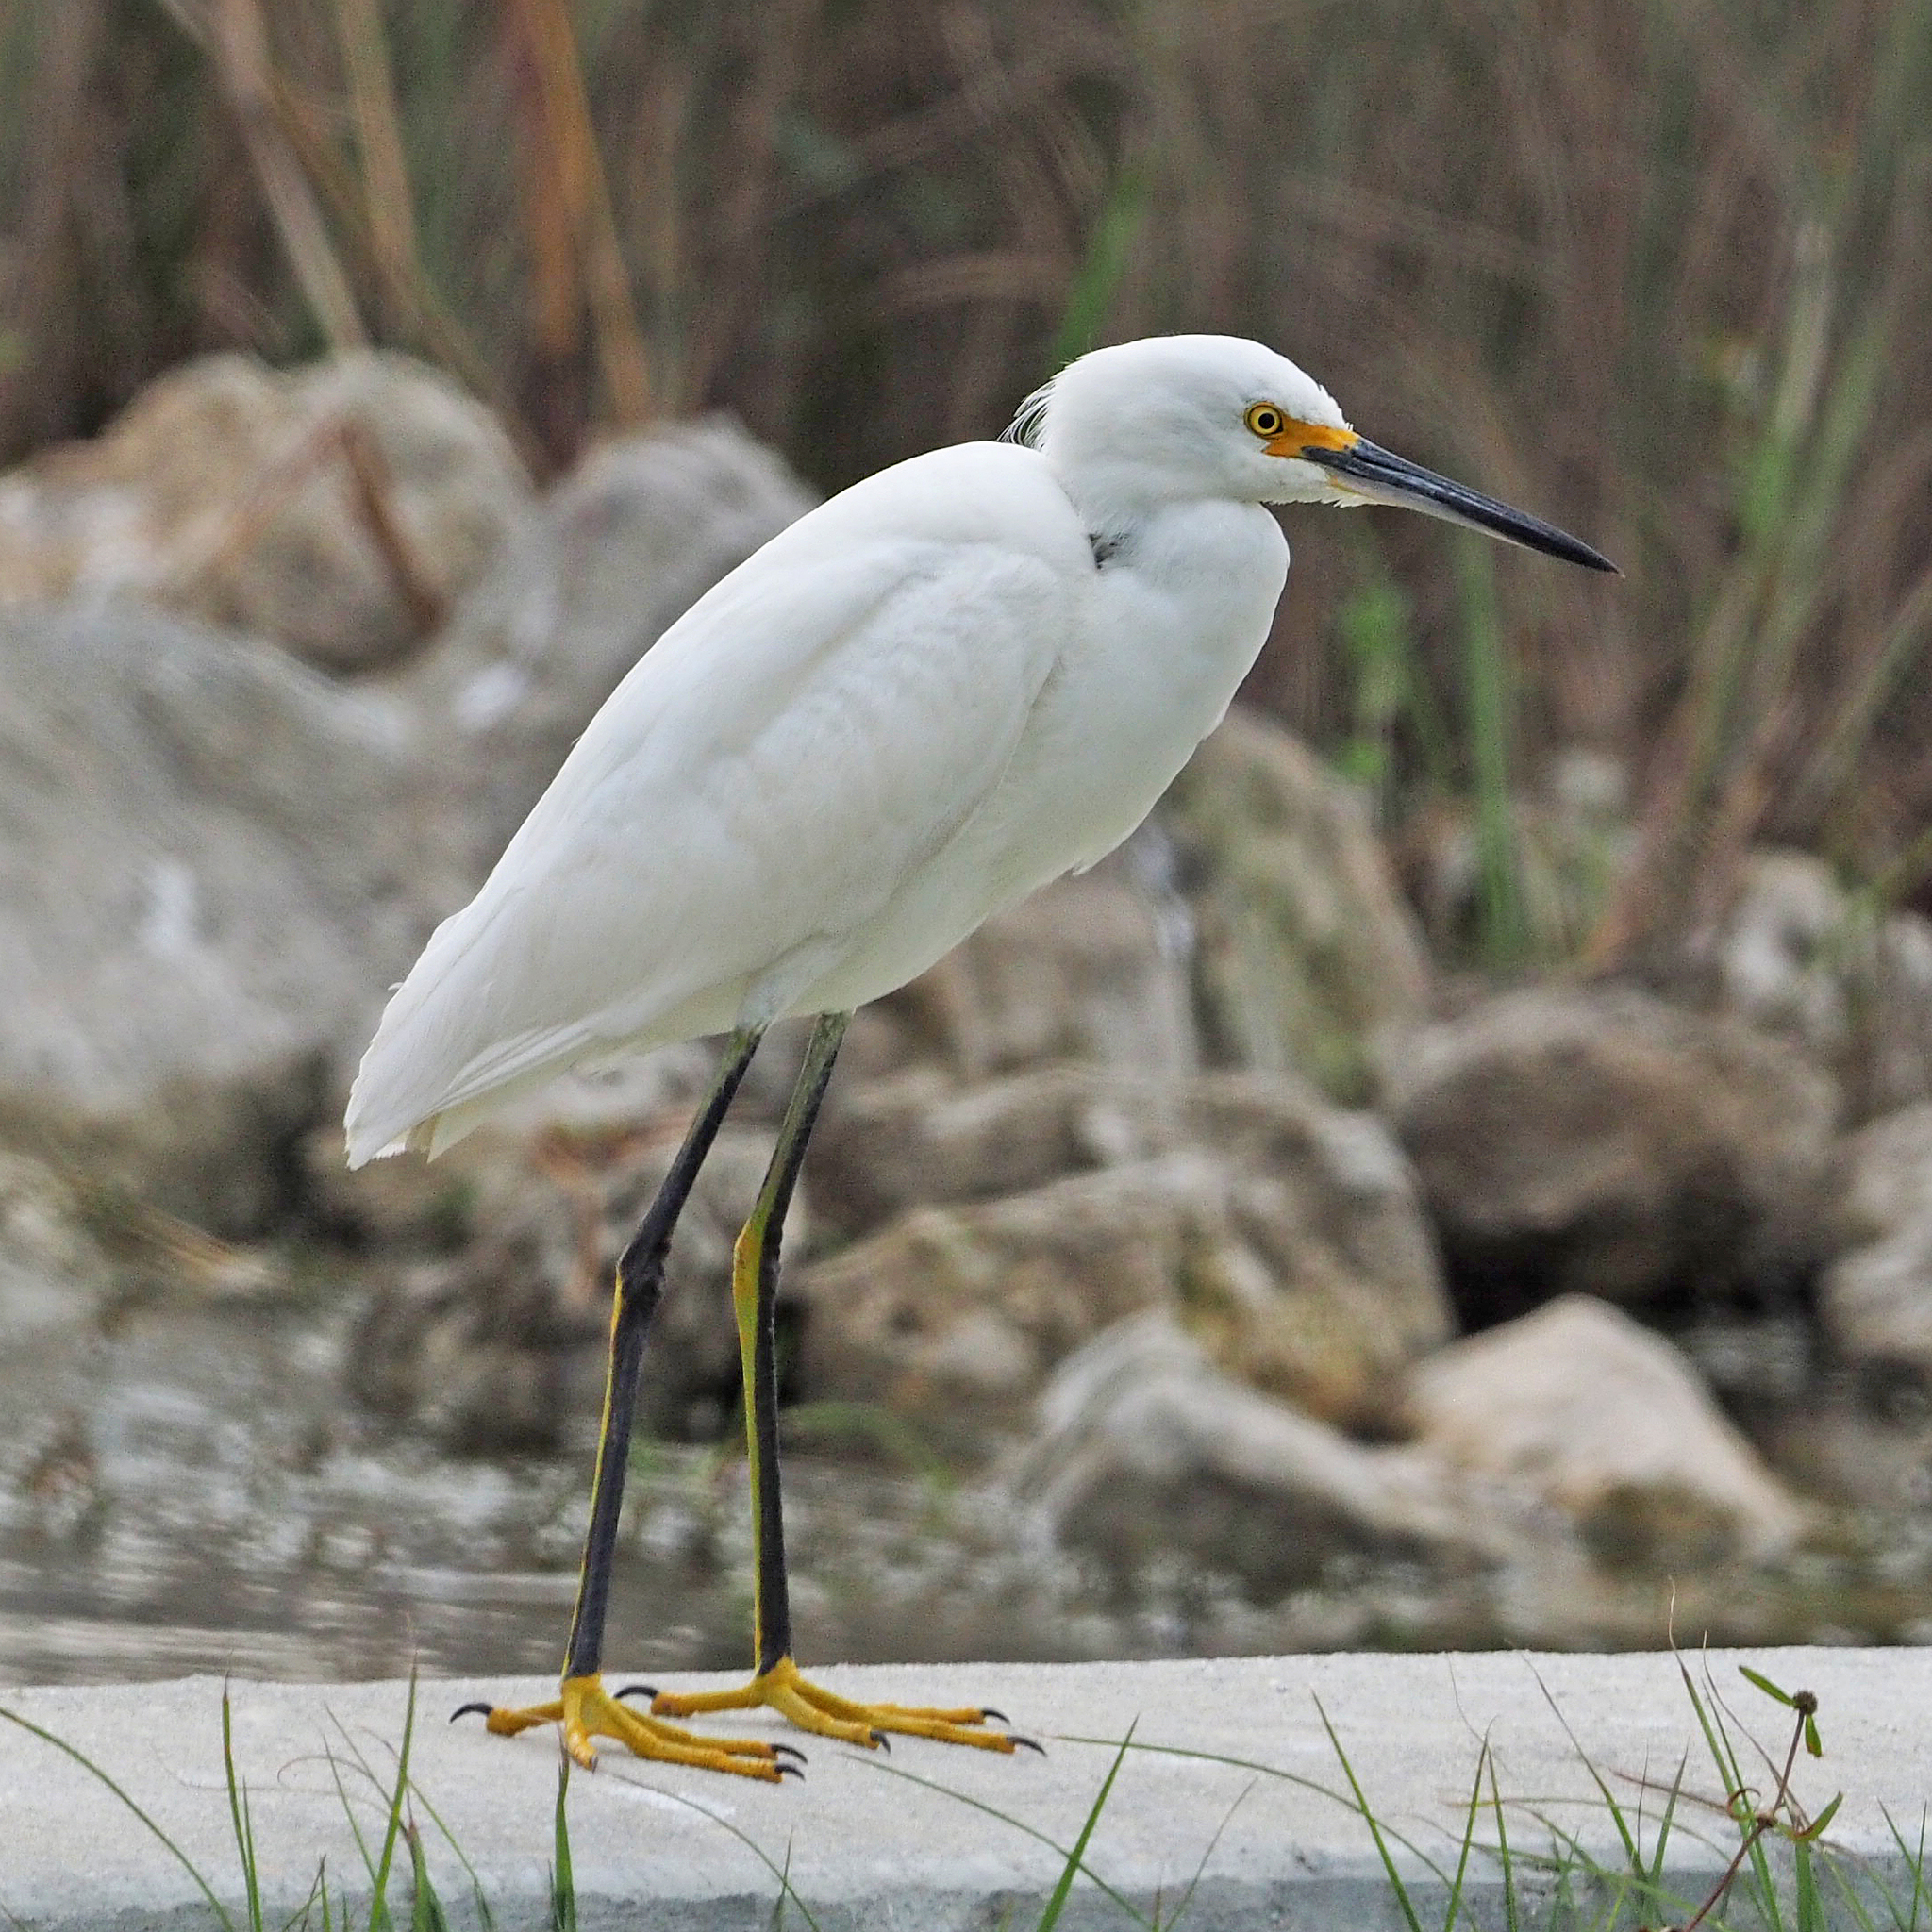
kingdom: Animalia
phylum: Chordata
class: Aves
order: Pelecaniformes
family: Ardeidae
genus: Egretta
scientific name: Egretta thula
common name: Snowy egret
